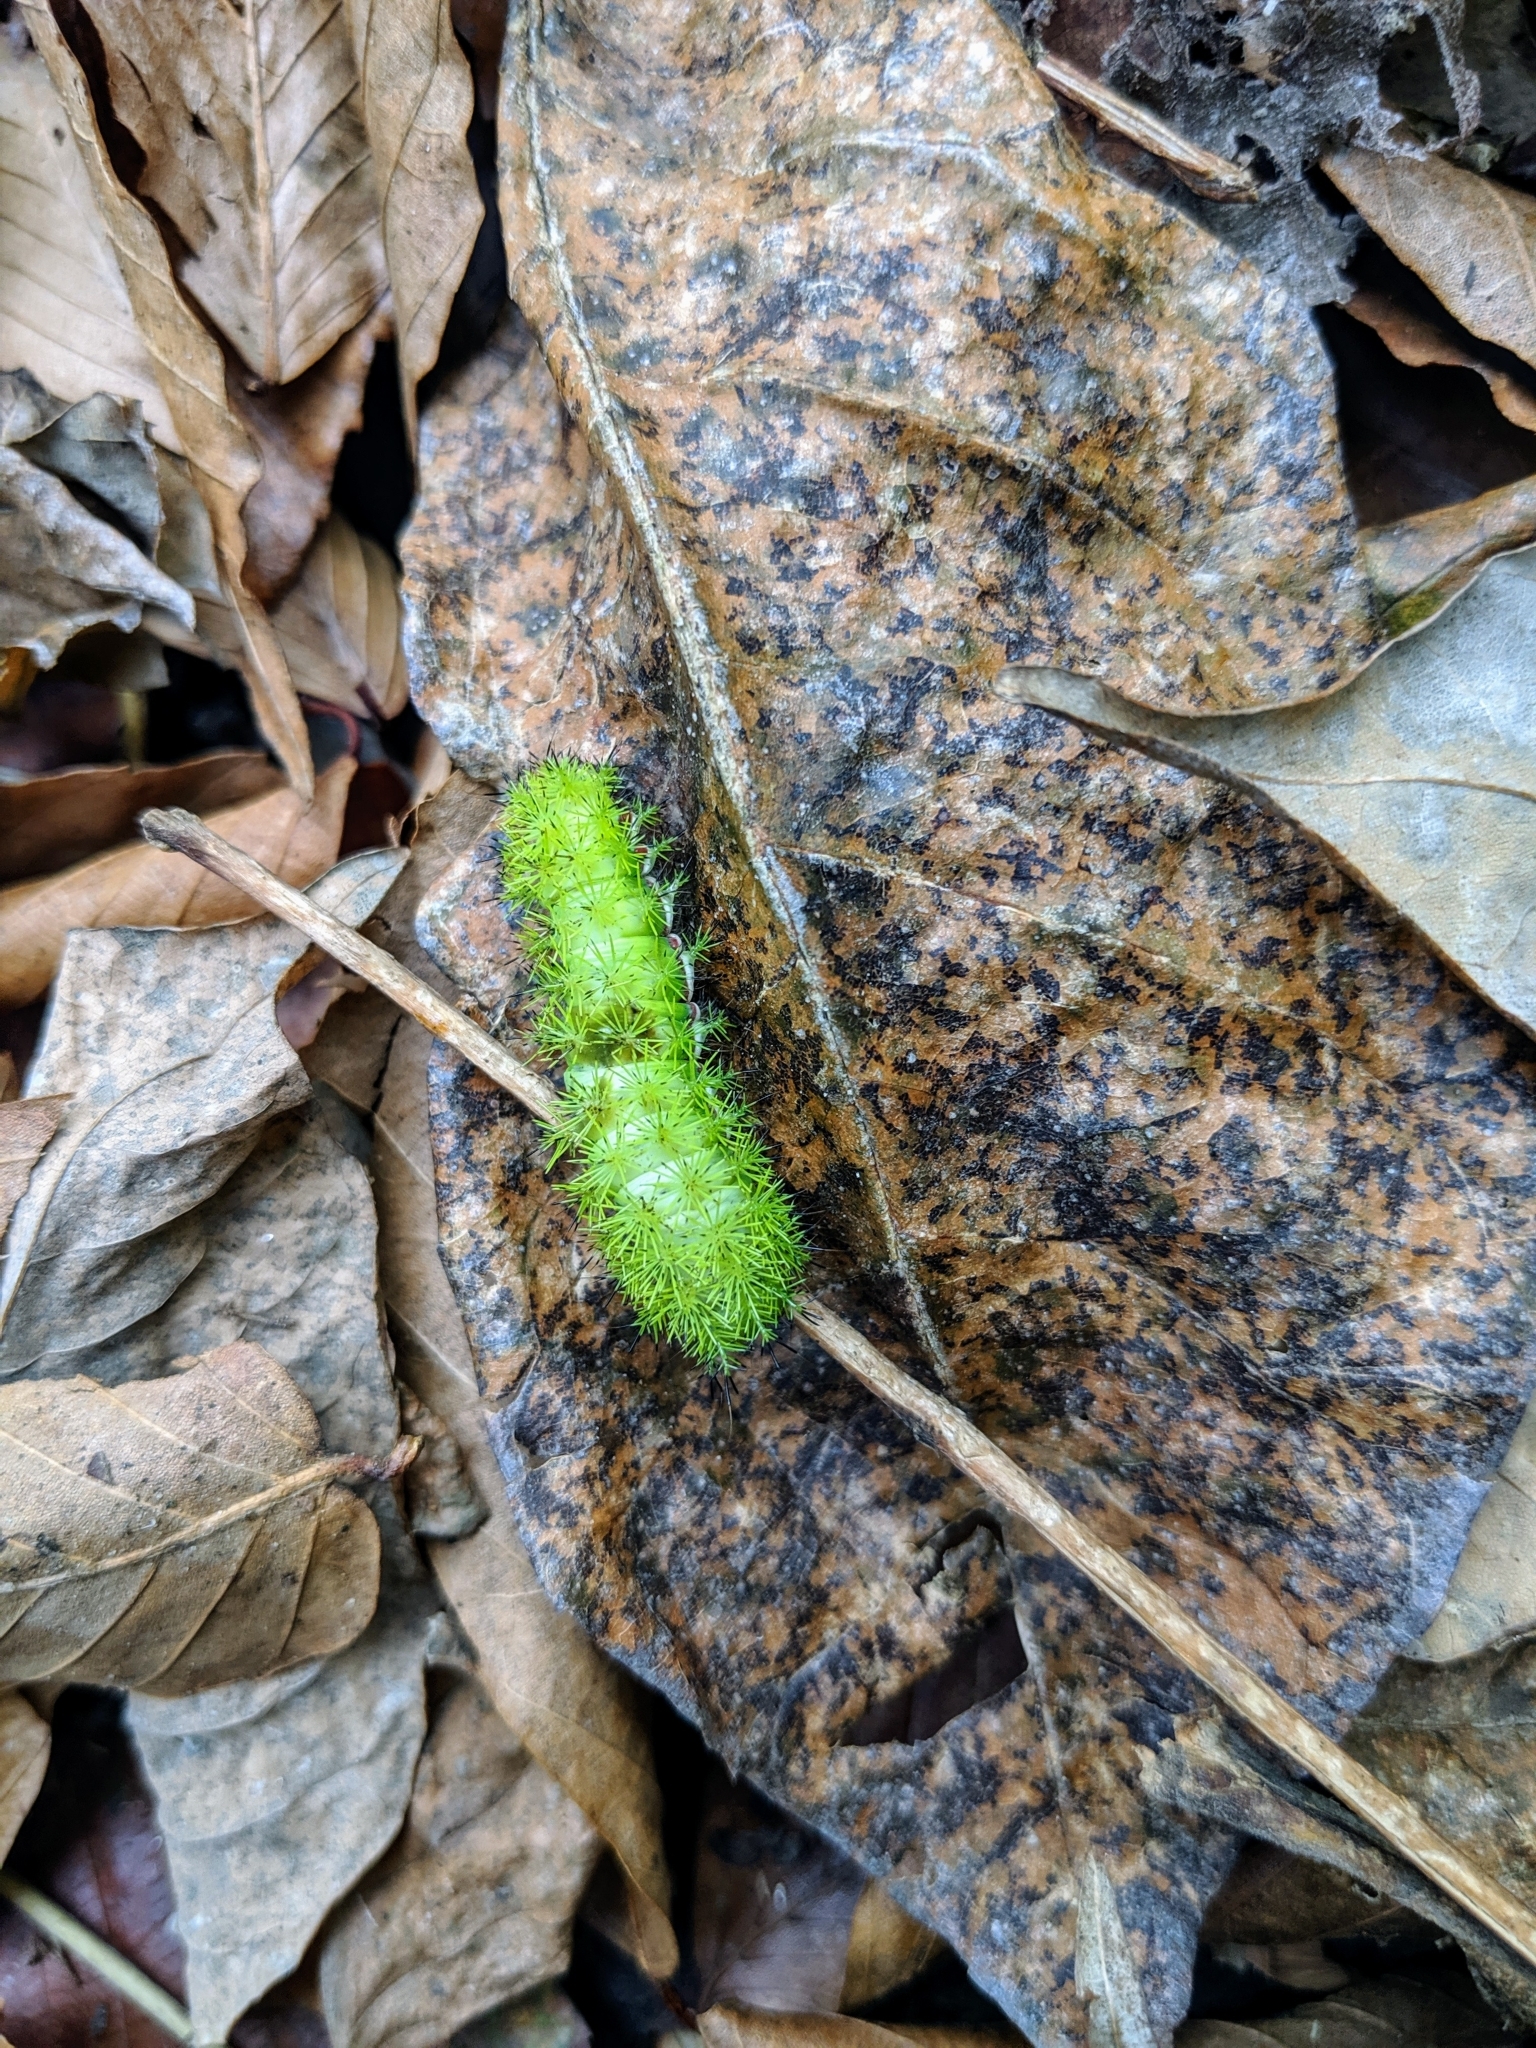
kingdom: Animalia
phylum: Arthropoda
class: Insecta
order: Lepidoptera
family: Saturniidae
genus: Automeris
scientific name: Automeris io
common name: Io moth
